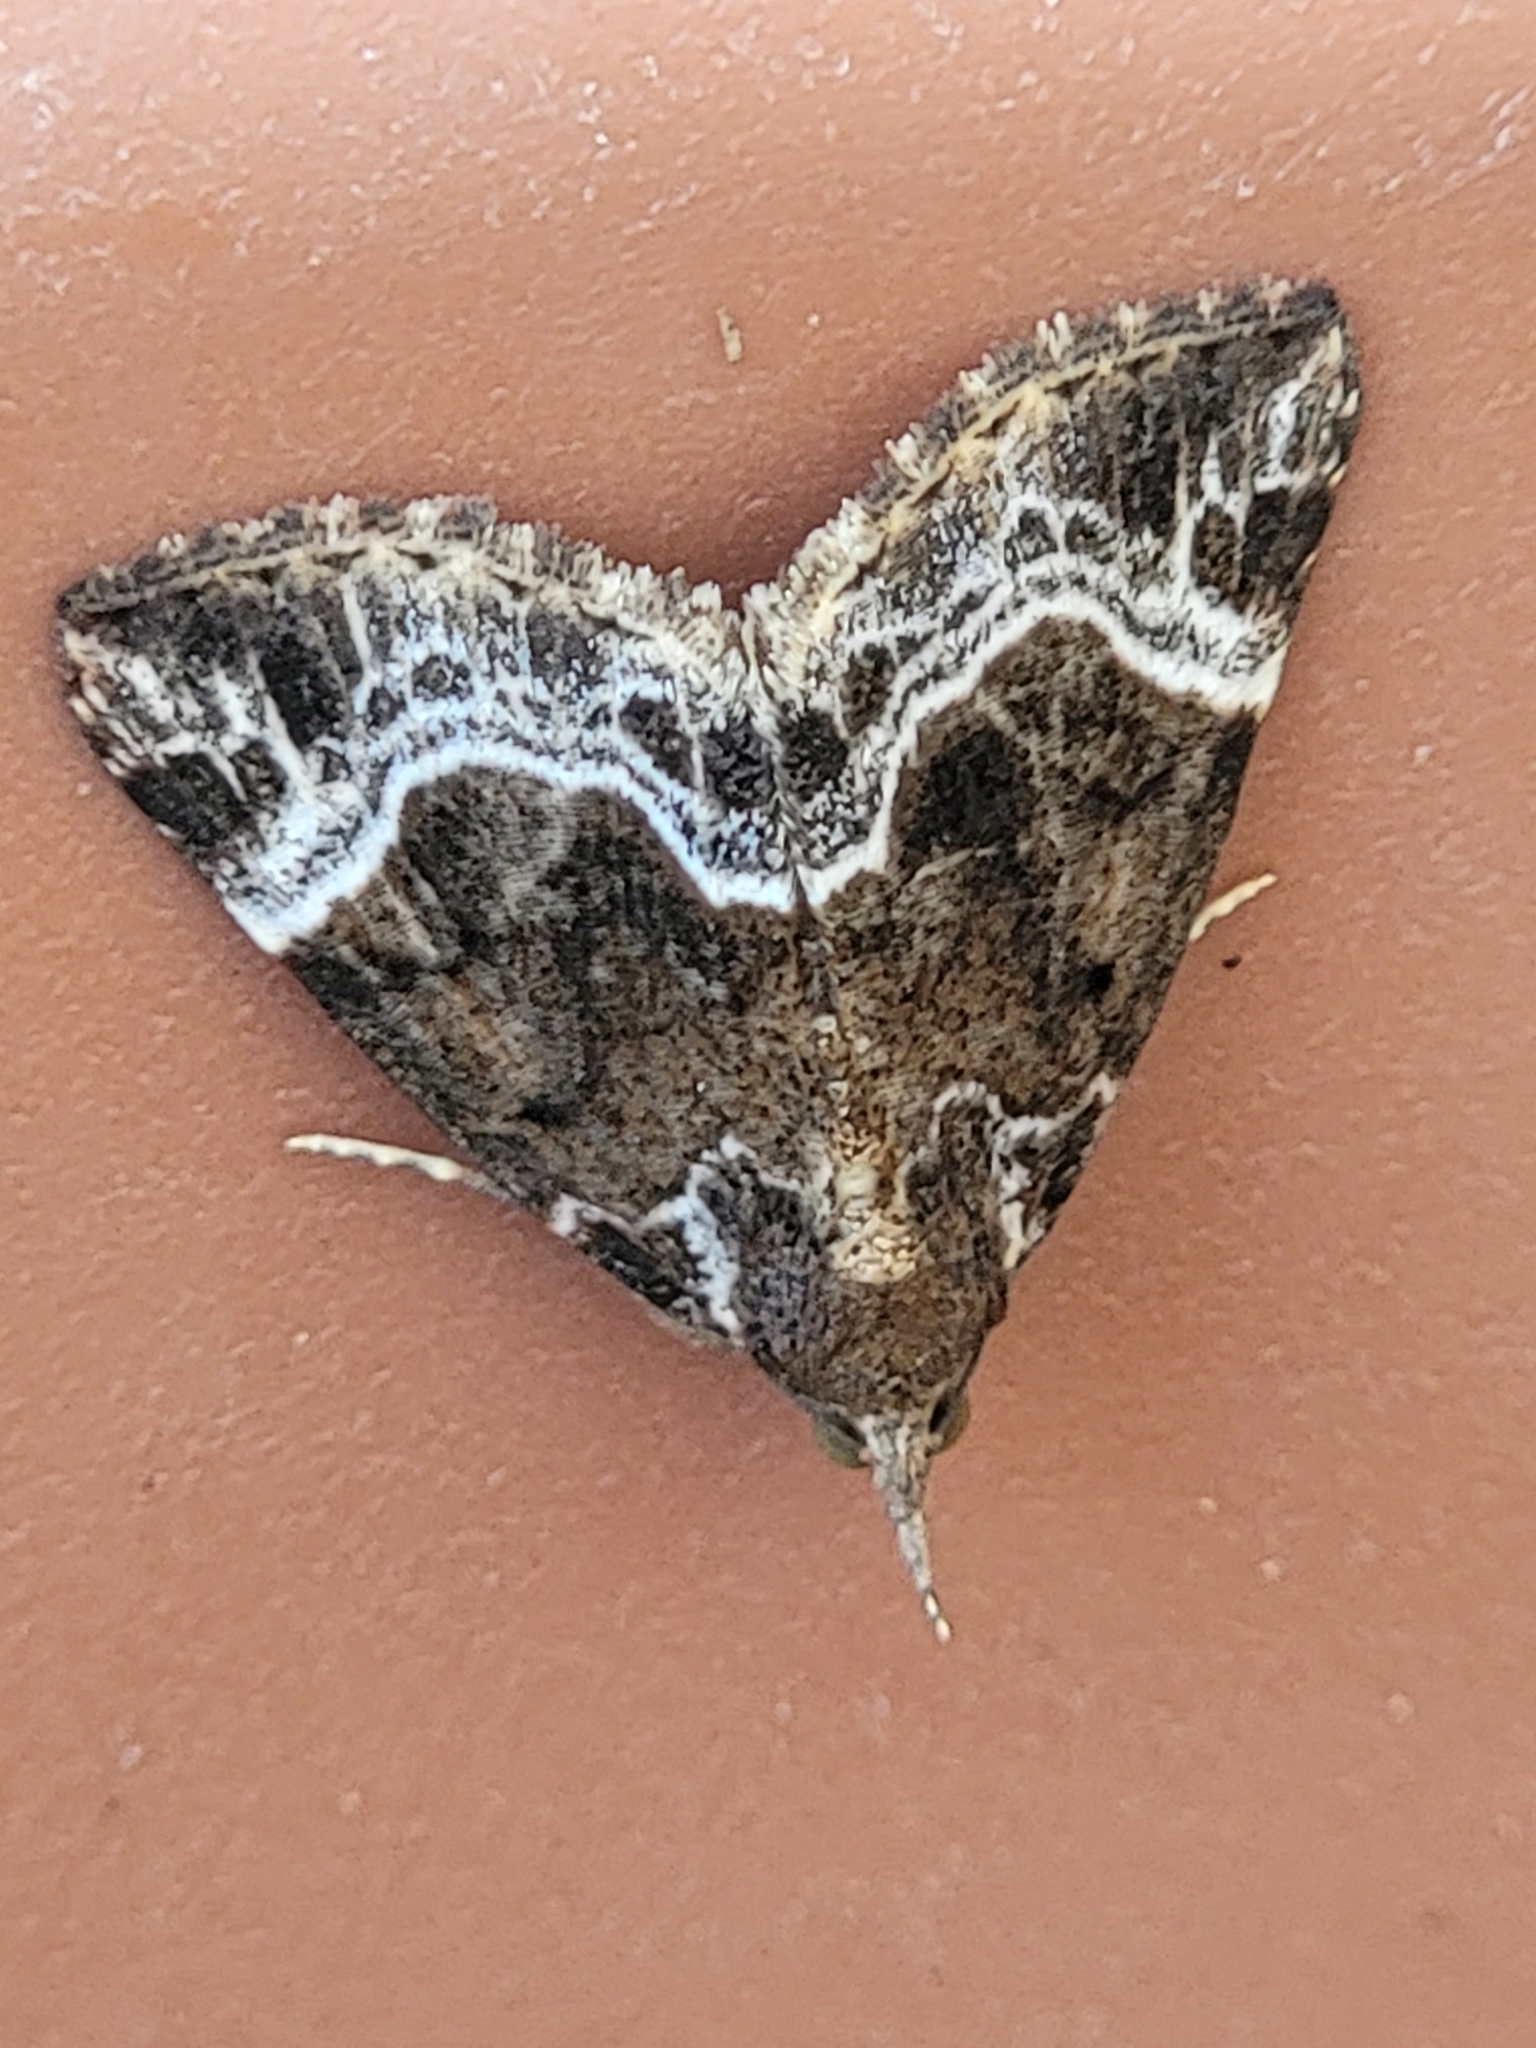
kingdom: Animalia
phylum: Arthropoda
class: Insecta
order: Lepidoptera
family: Erebidae
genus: Hypena
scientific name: Hypena abalienalis
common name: White-lined snout
